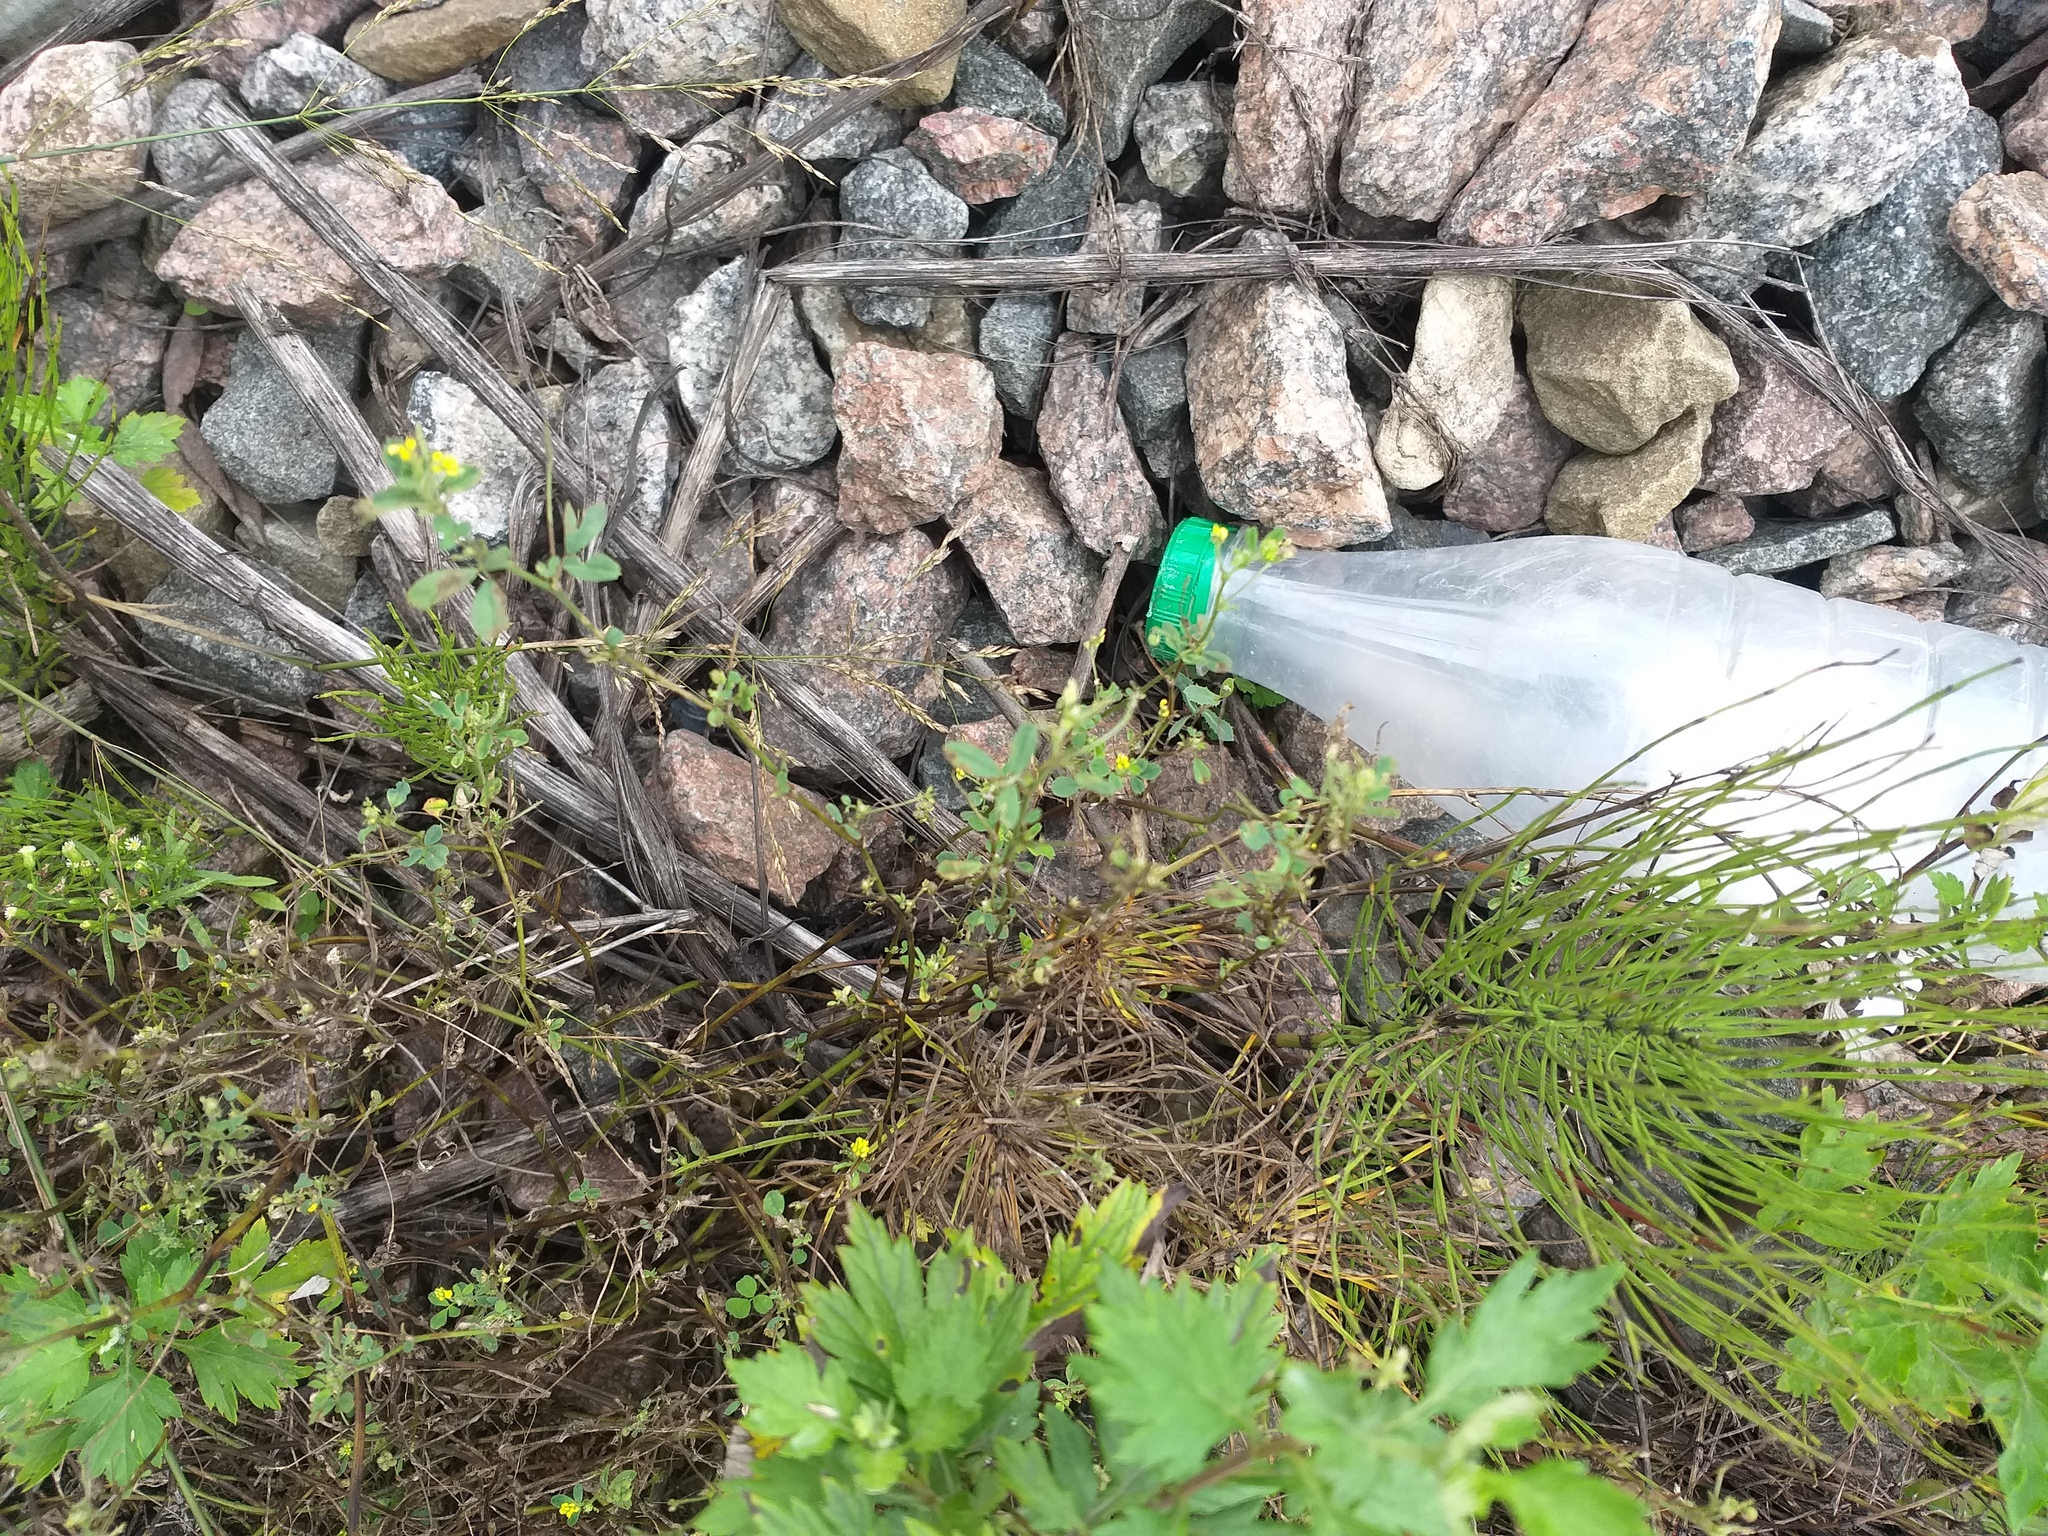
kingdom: Plantae
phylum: Tracheophyta
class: Magnoliopsida
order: Fabales
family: Fabaceae
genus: Medicago
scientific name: Medicago lupulina
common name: Black medick
